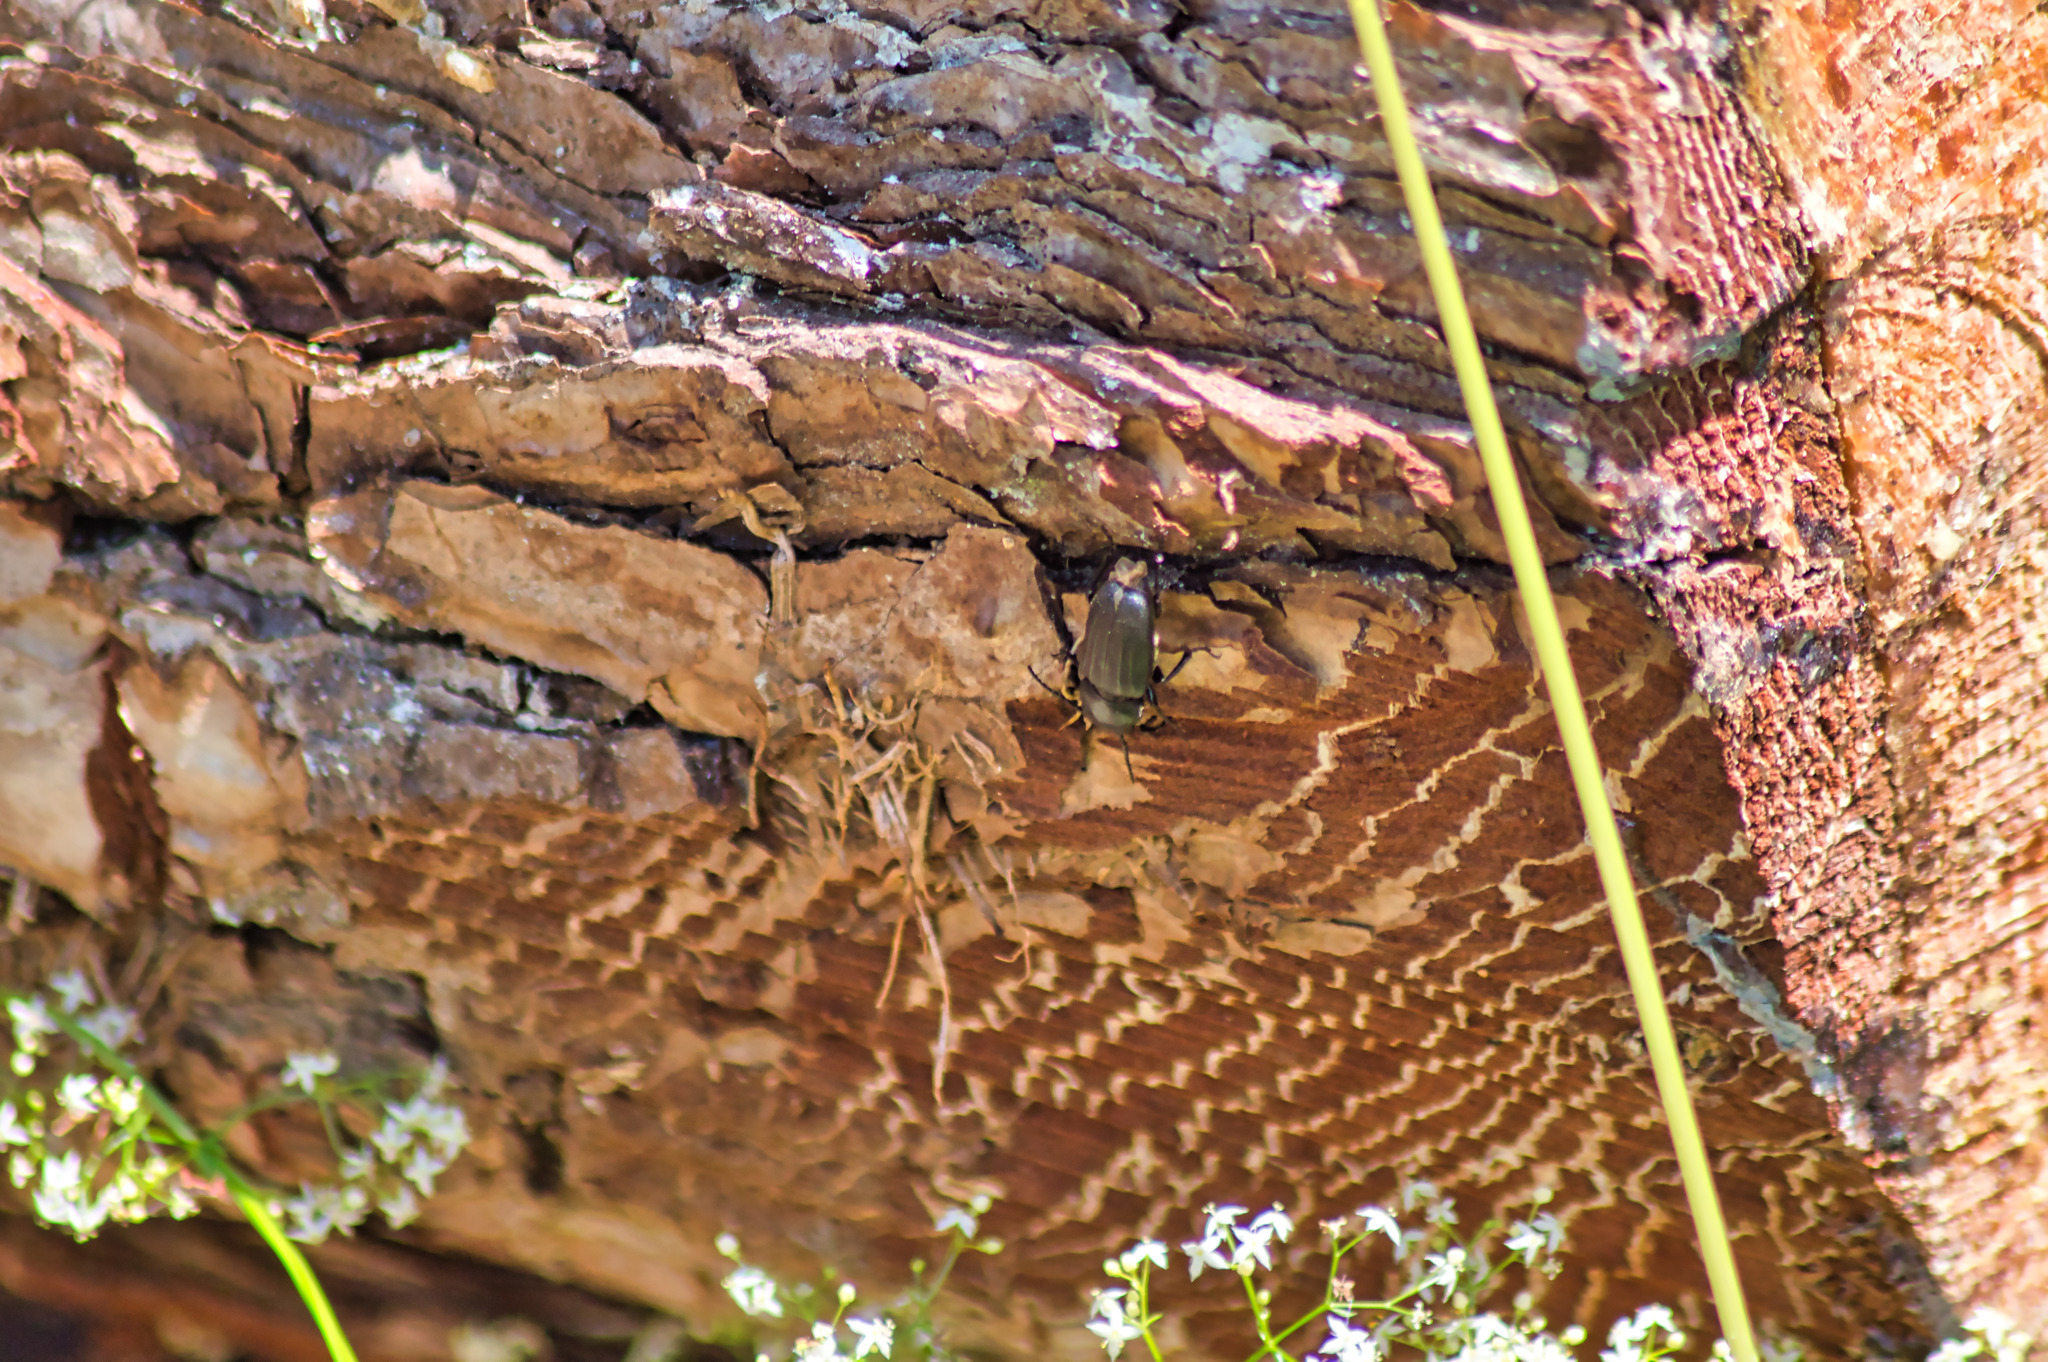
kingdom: Animalia
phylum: Arthropoda
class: Insecta
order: Coleoptera
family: Cerambycidae
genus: Spondylis
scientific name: Spondylis buprestoides
